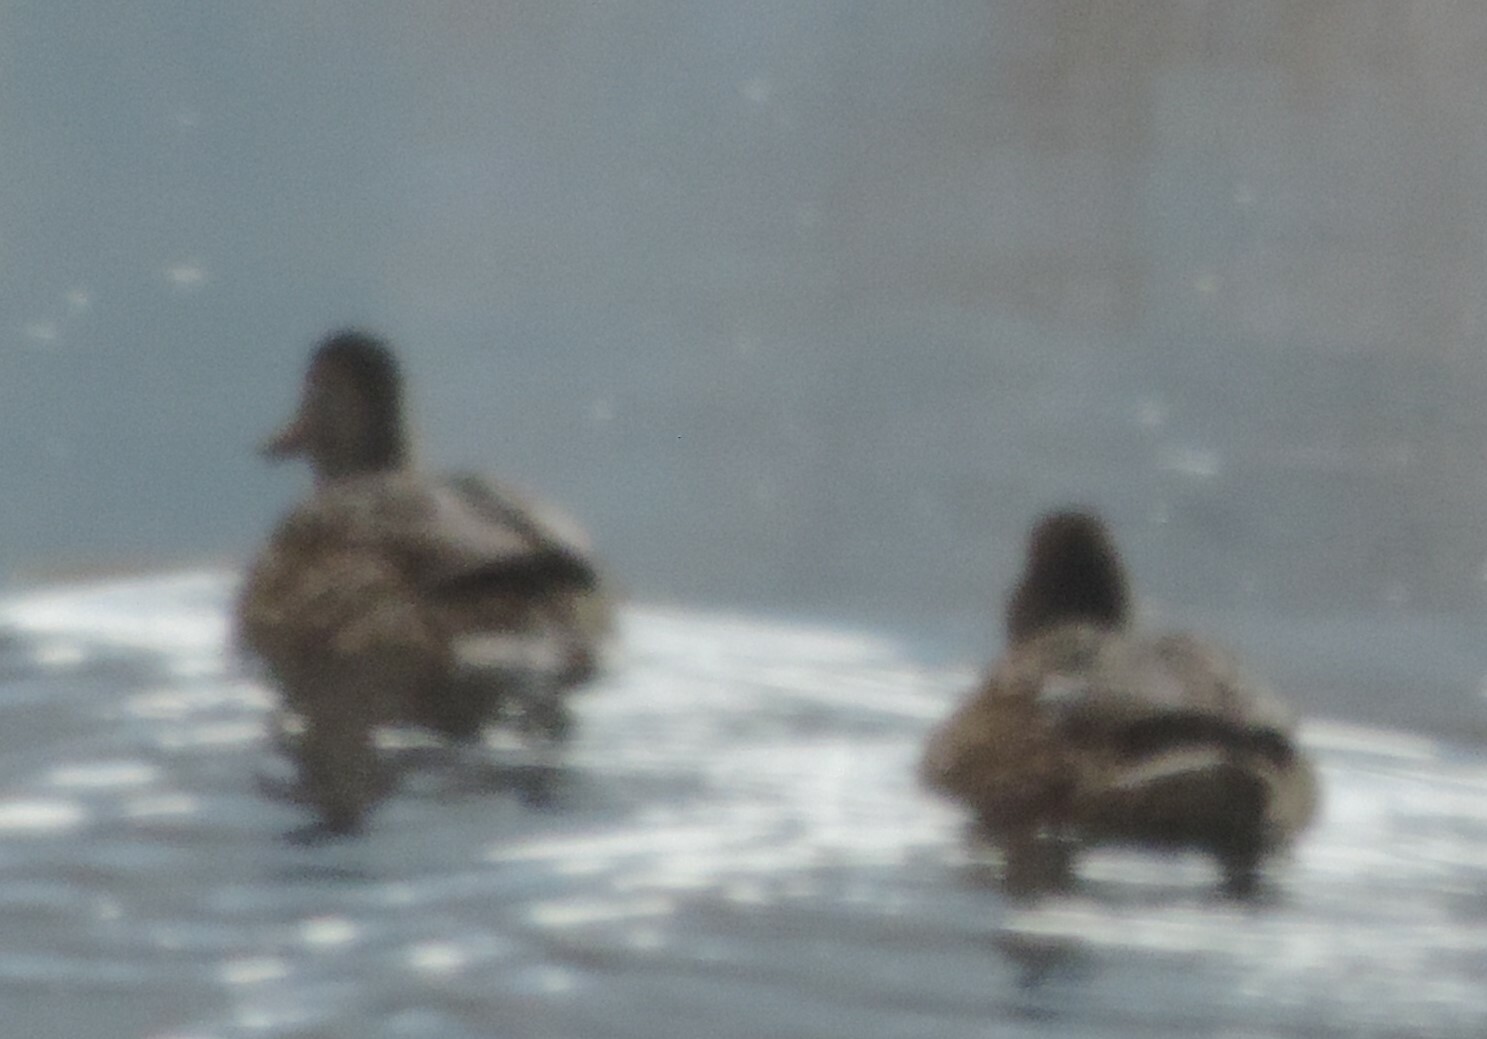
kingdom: Animalia
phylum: Chordata
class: Aves
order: Anseriformes
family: Anatidae
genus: Anas
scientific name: Anas platyrhynchos
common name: Mallard
